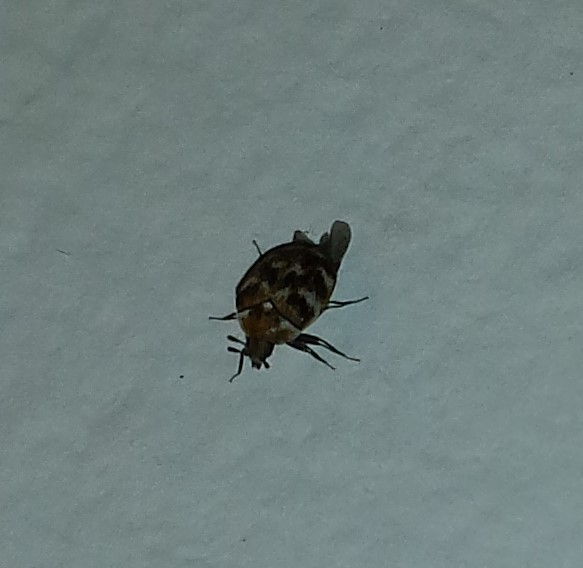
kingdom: Animalia
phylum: Arthropoda
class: Insecta
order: Coleoptera
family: Dermestidae
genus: Anthrenus
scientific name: Anthrenus verbasci
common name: Varied carpet beetle
